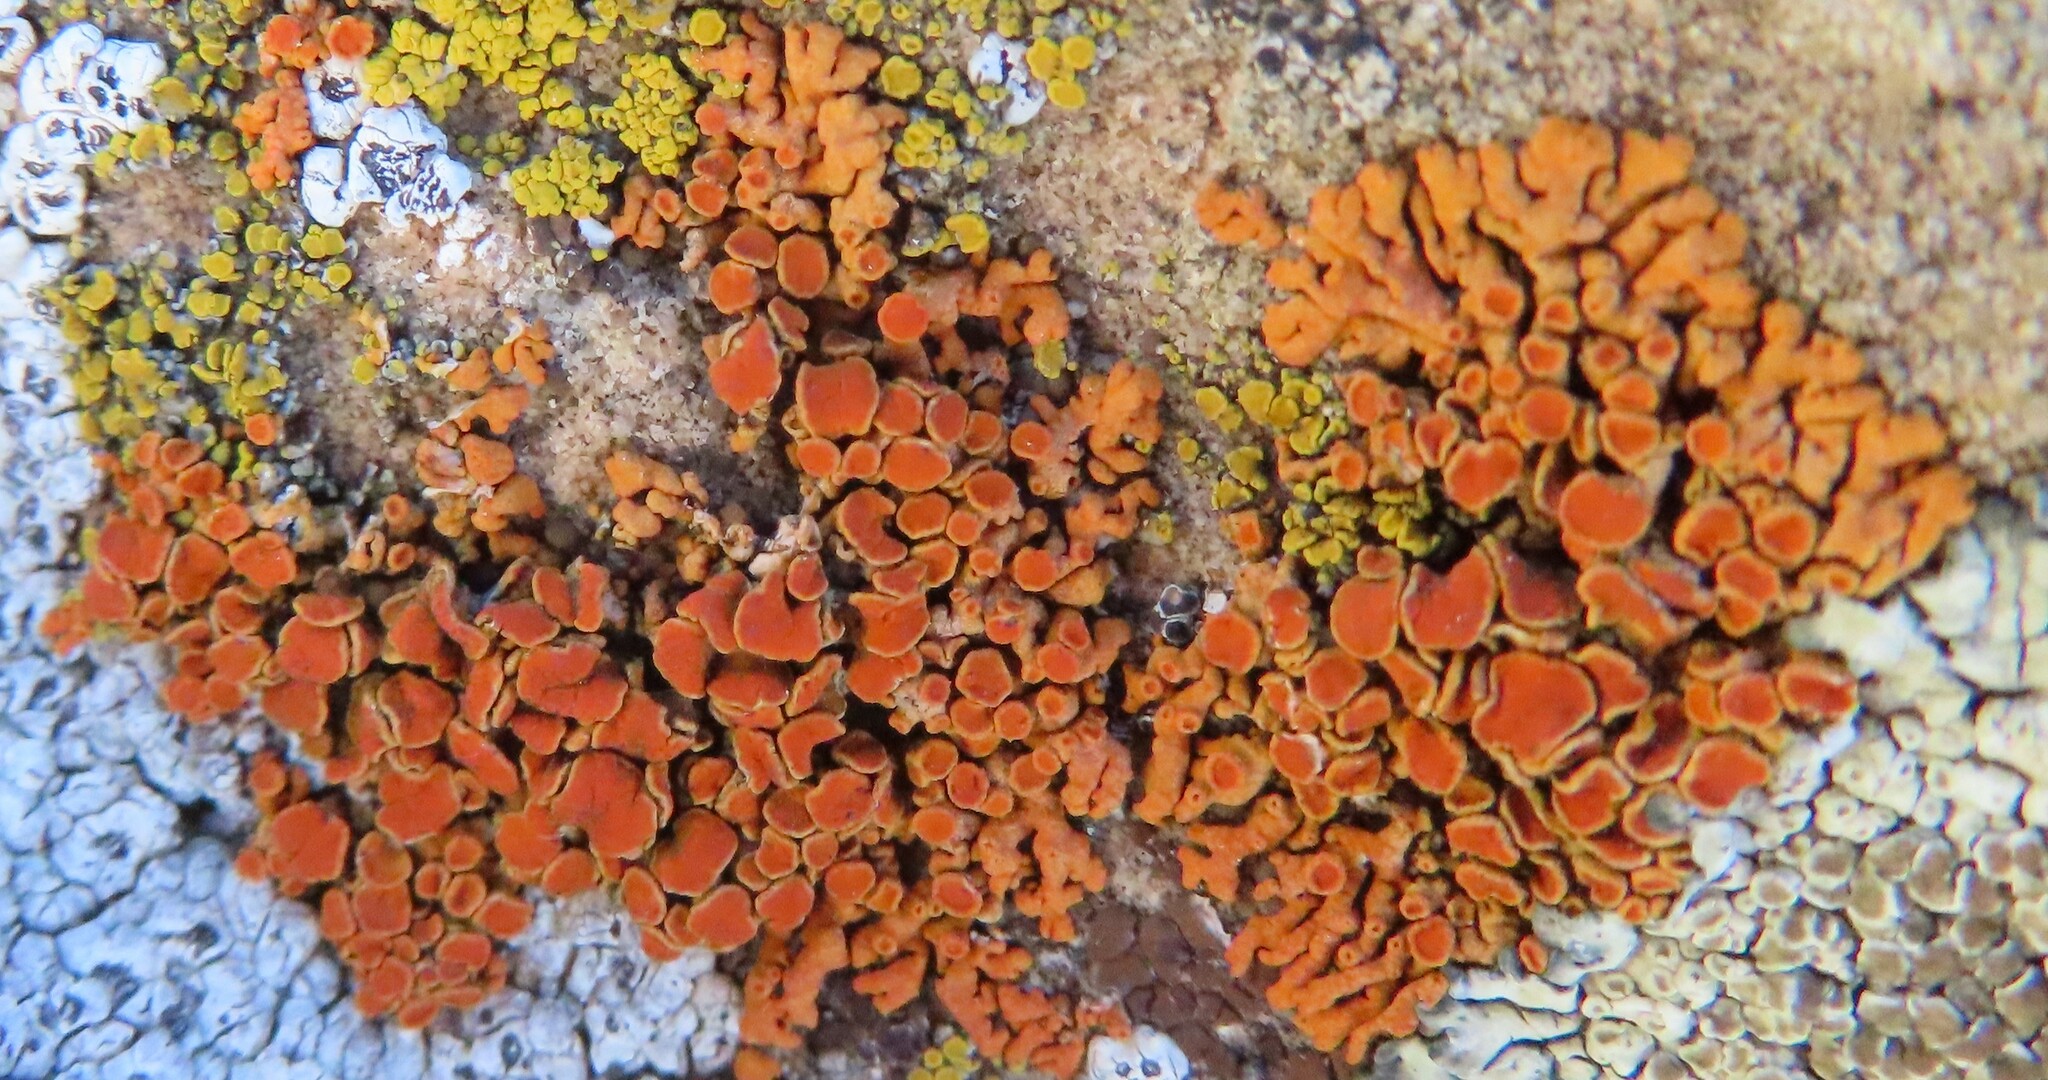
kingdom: Fungi
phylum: Ascomycota
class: Lecanoromycetes
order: Teloschistales
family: Teloschistaceae
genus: Xanthoria
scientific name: Xanthoria elegans
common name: Elegant sunburst lichen
